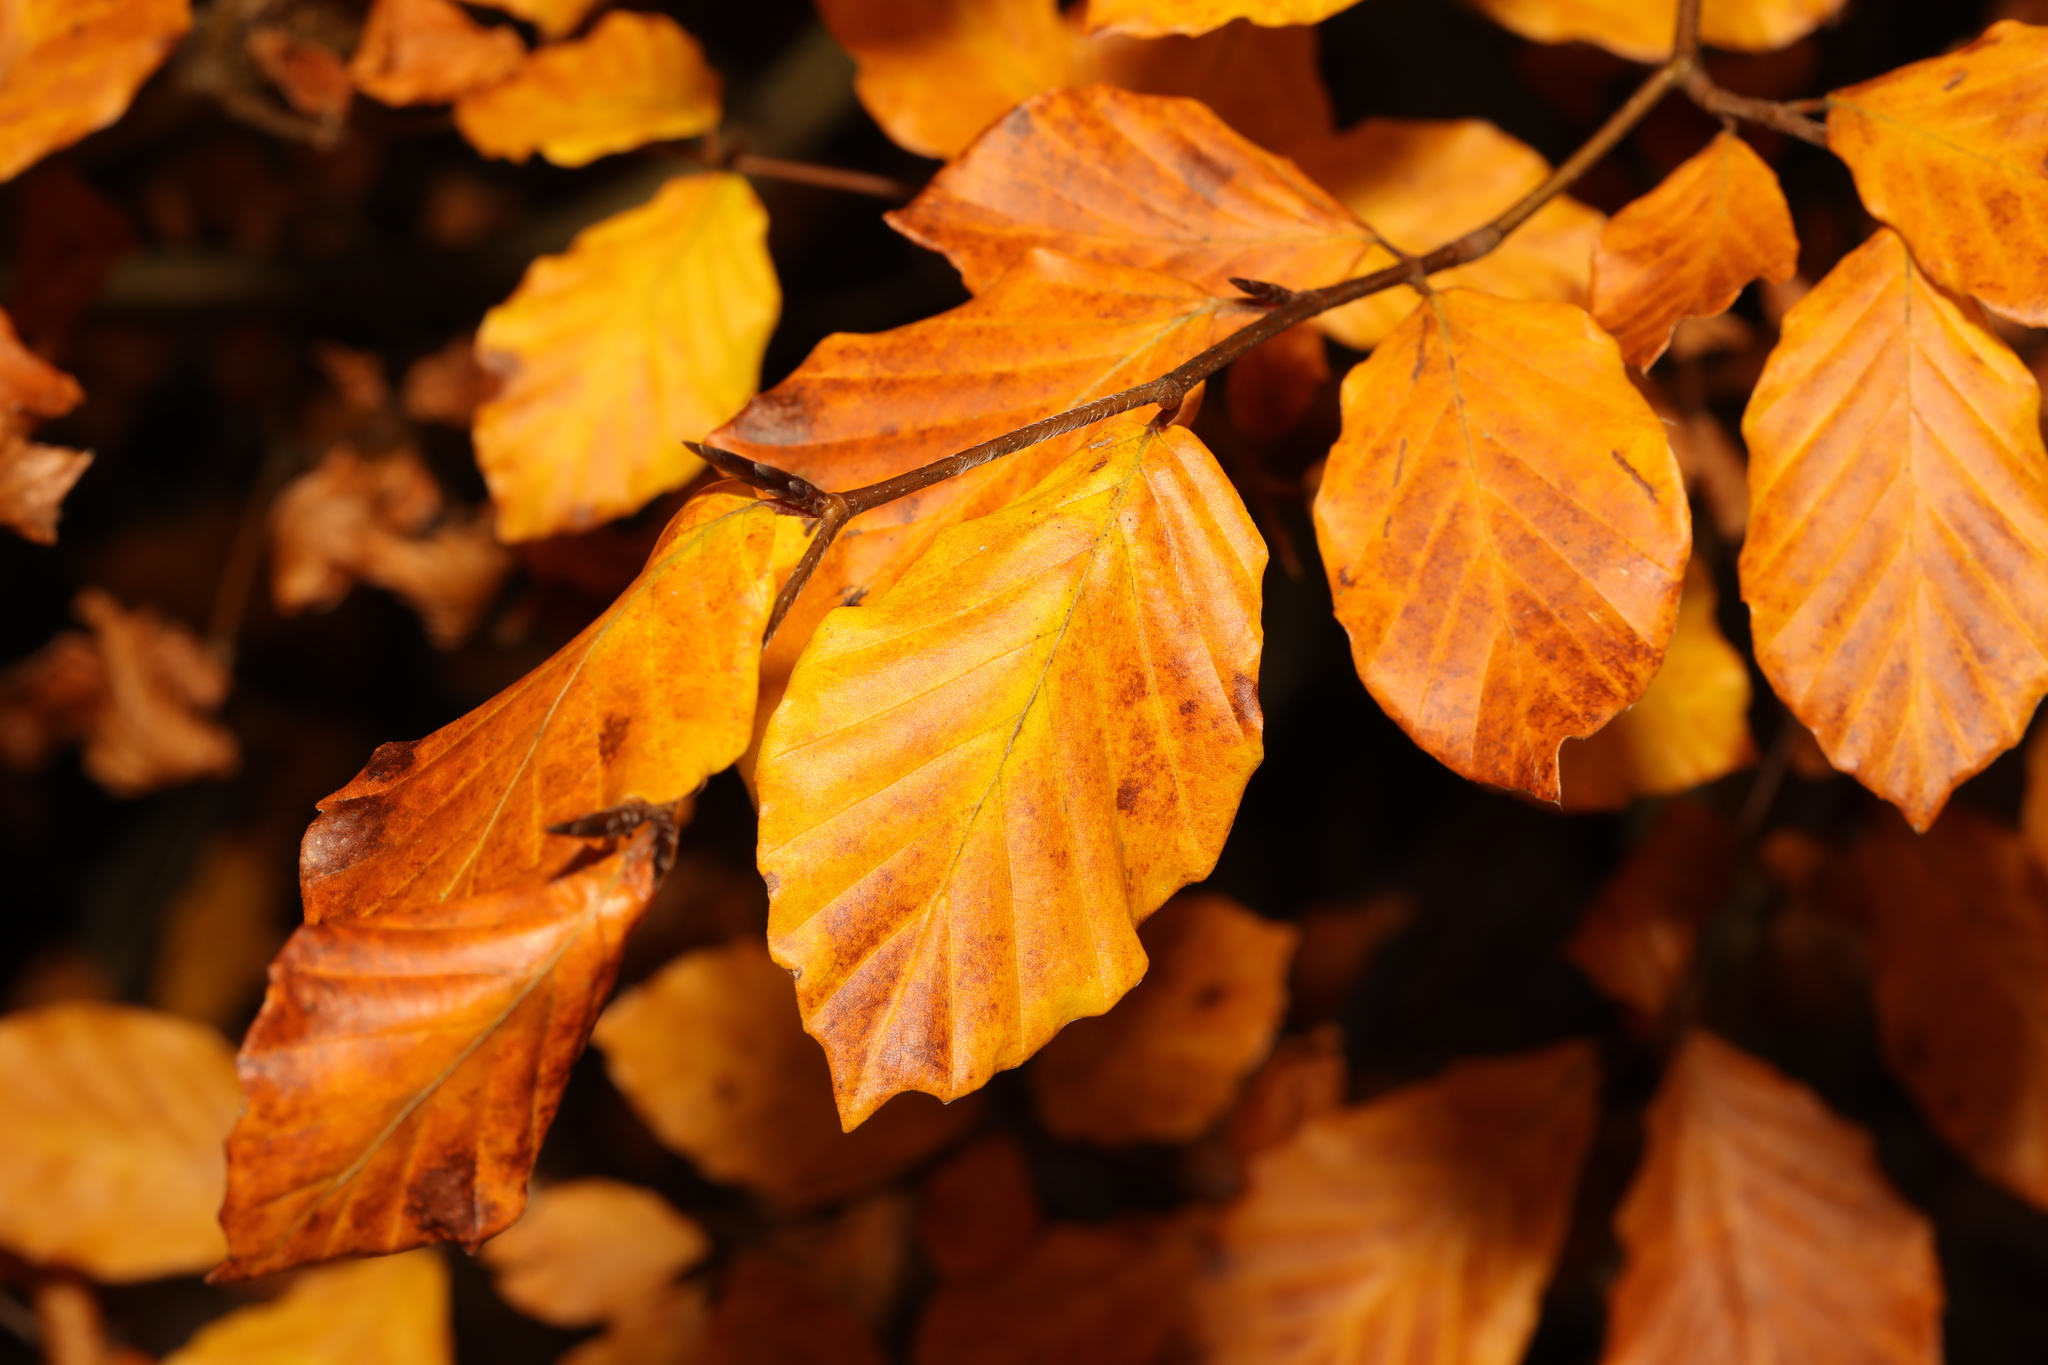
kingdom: Plantae
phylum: Tracheophyta
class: Magnoliopsida
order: Fagales
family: Fagaceae
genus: Fagus
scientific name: Fagus sylvatica
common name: Beech
